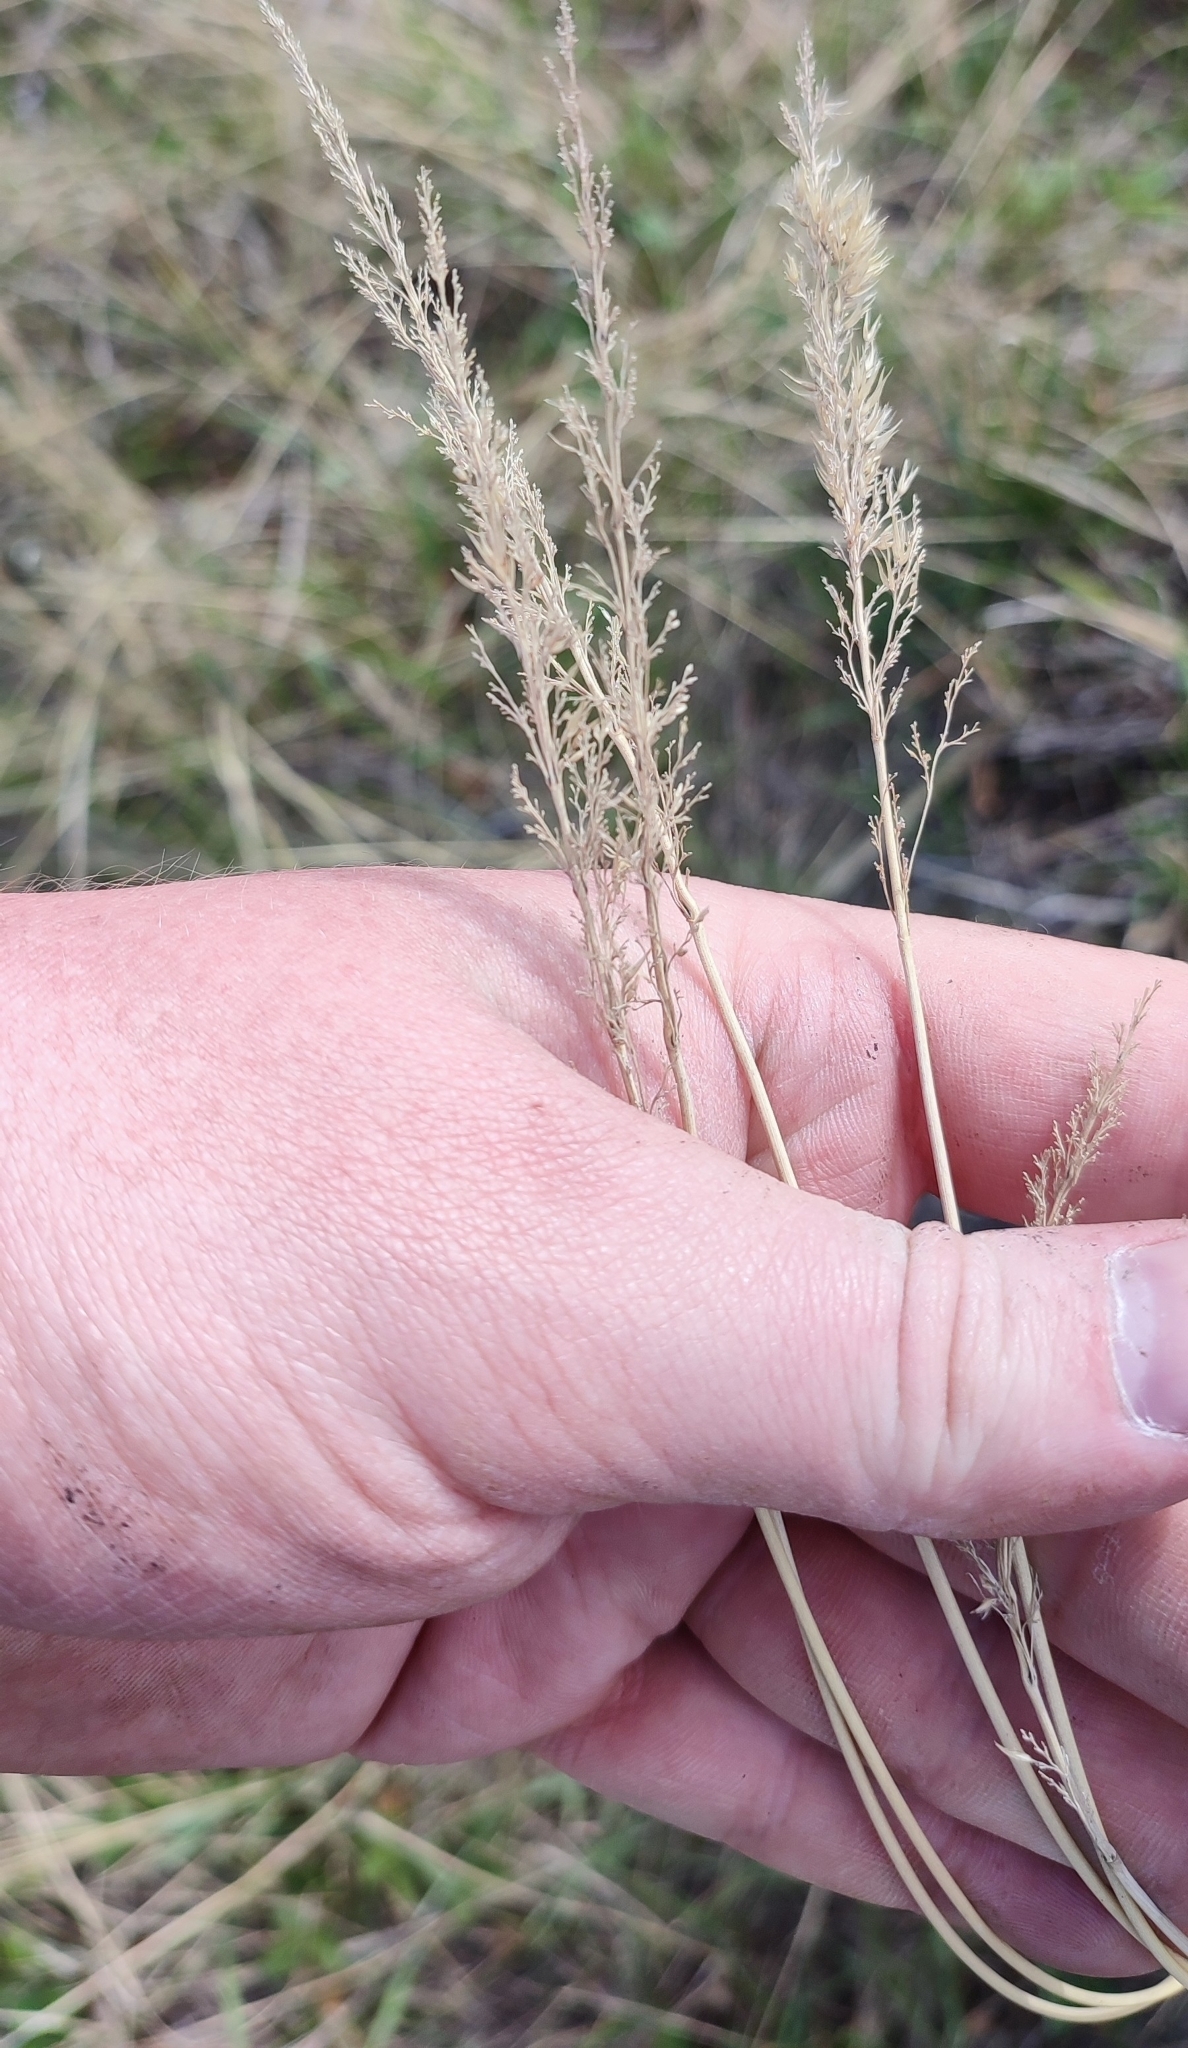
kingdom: Plantae
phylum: Tracheophyta
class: Liliopsida
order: Poales
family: Poaceae
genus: Calamagrostis
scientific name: Calamagrostis epigejos
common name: Wood small-reed
